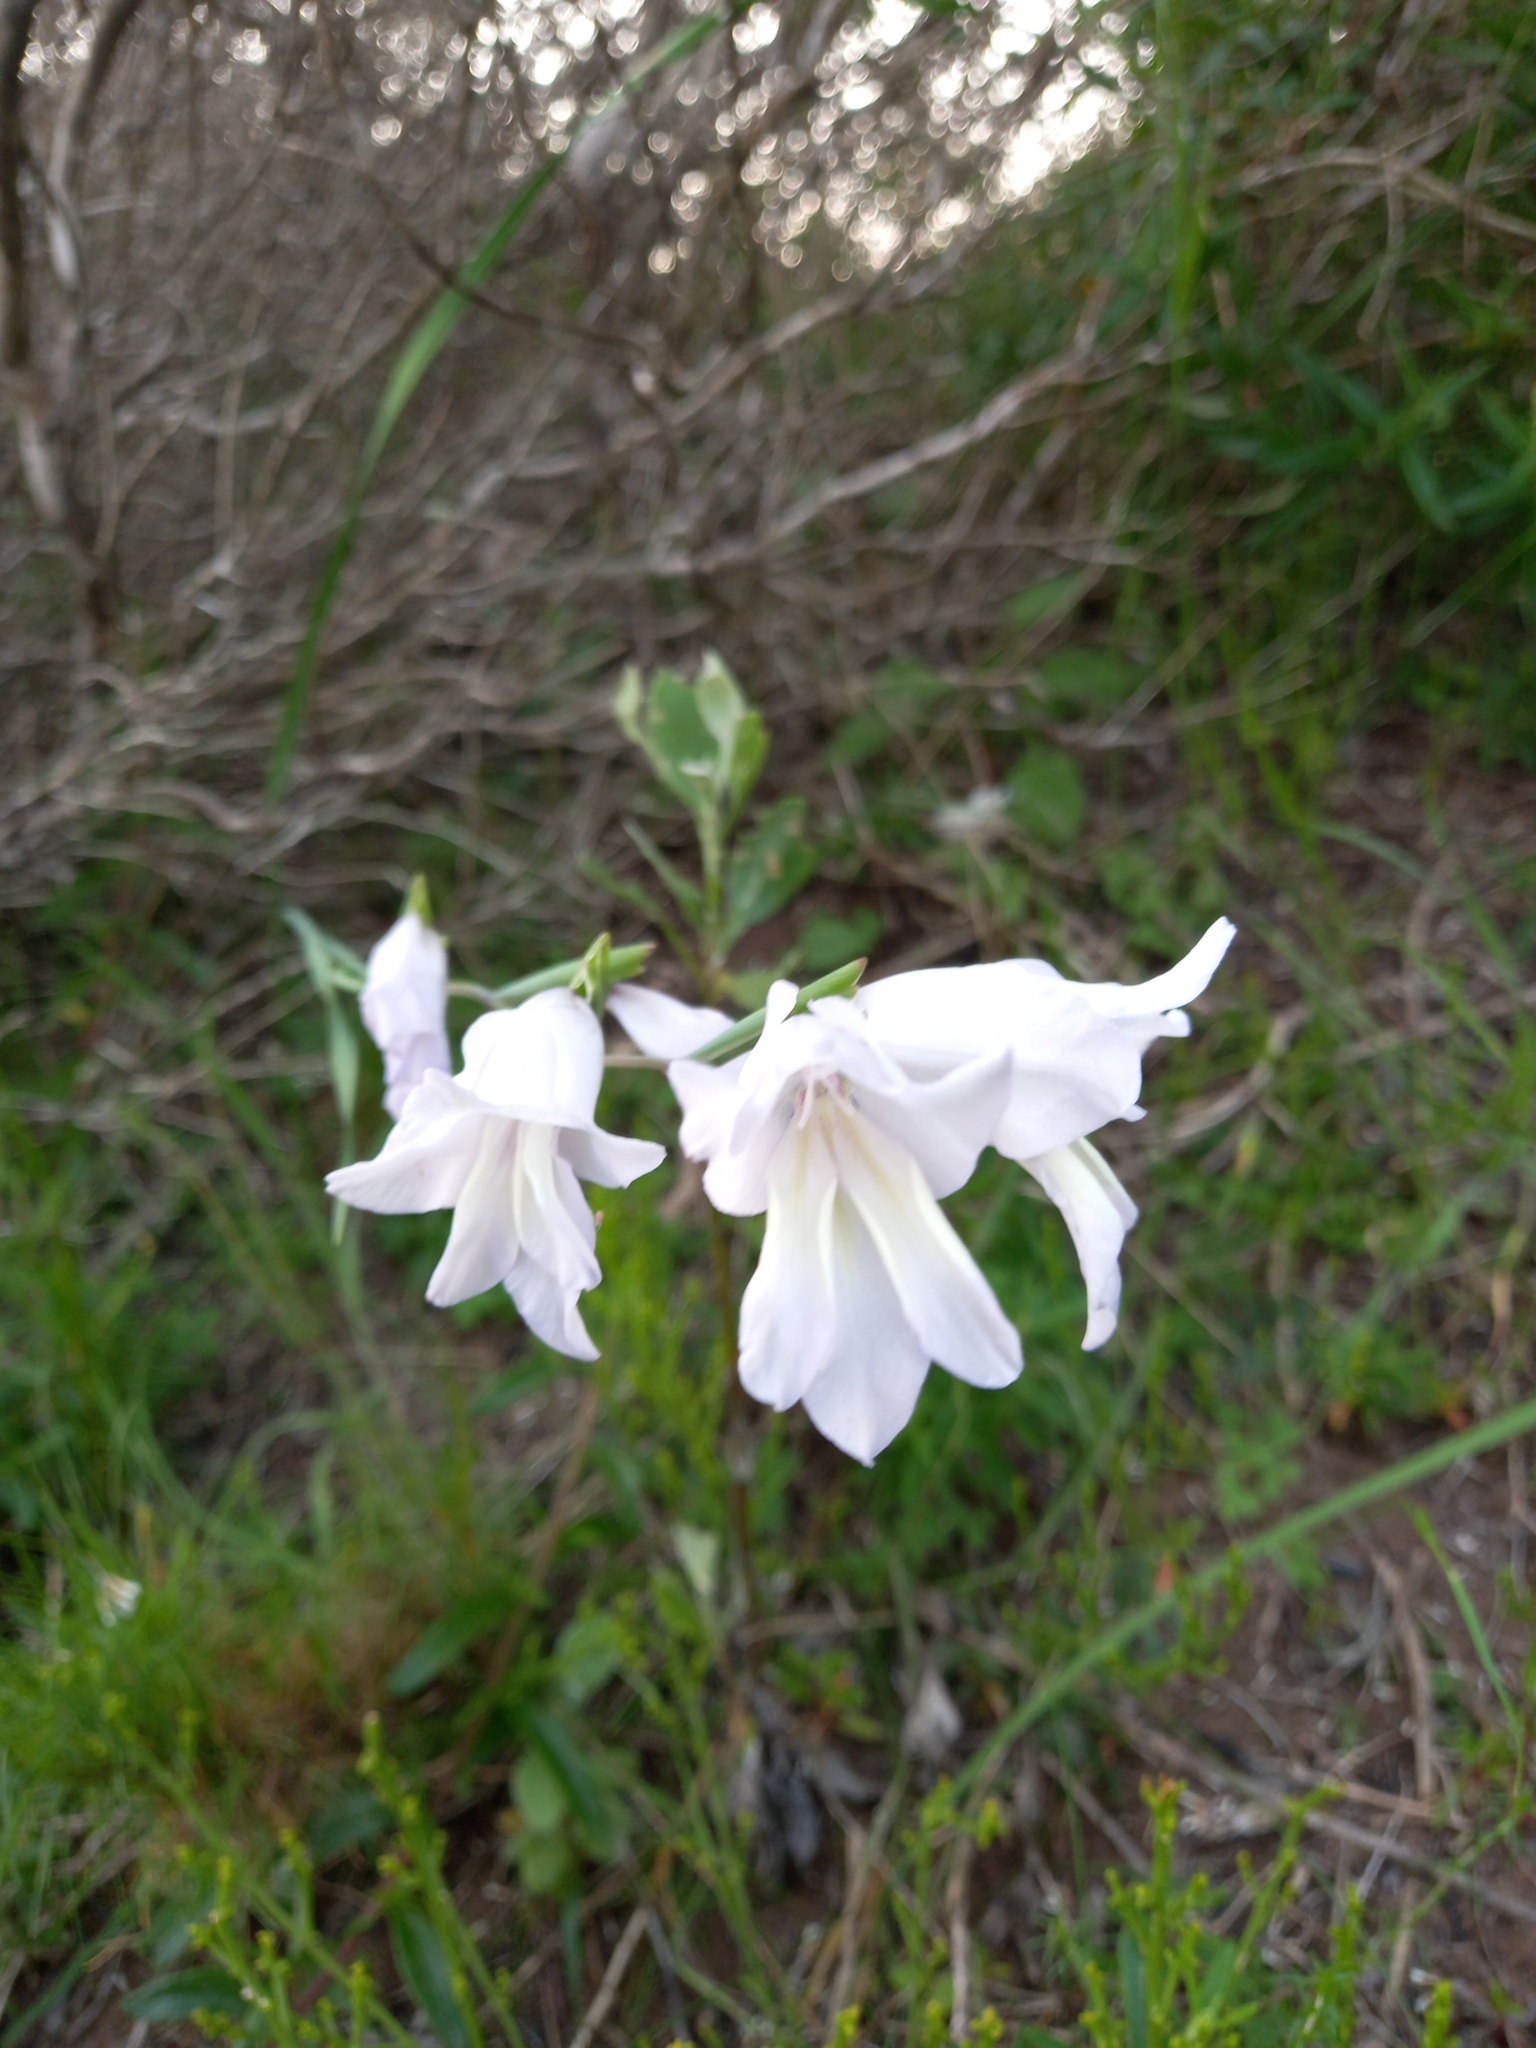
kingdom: Plantae
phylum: Tracheophyta
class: Liliopsida
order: Asparagales
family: Iridaceae
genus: Gladiolus
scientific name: Gladiolus carinatus
